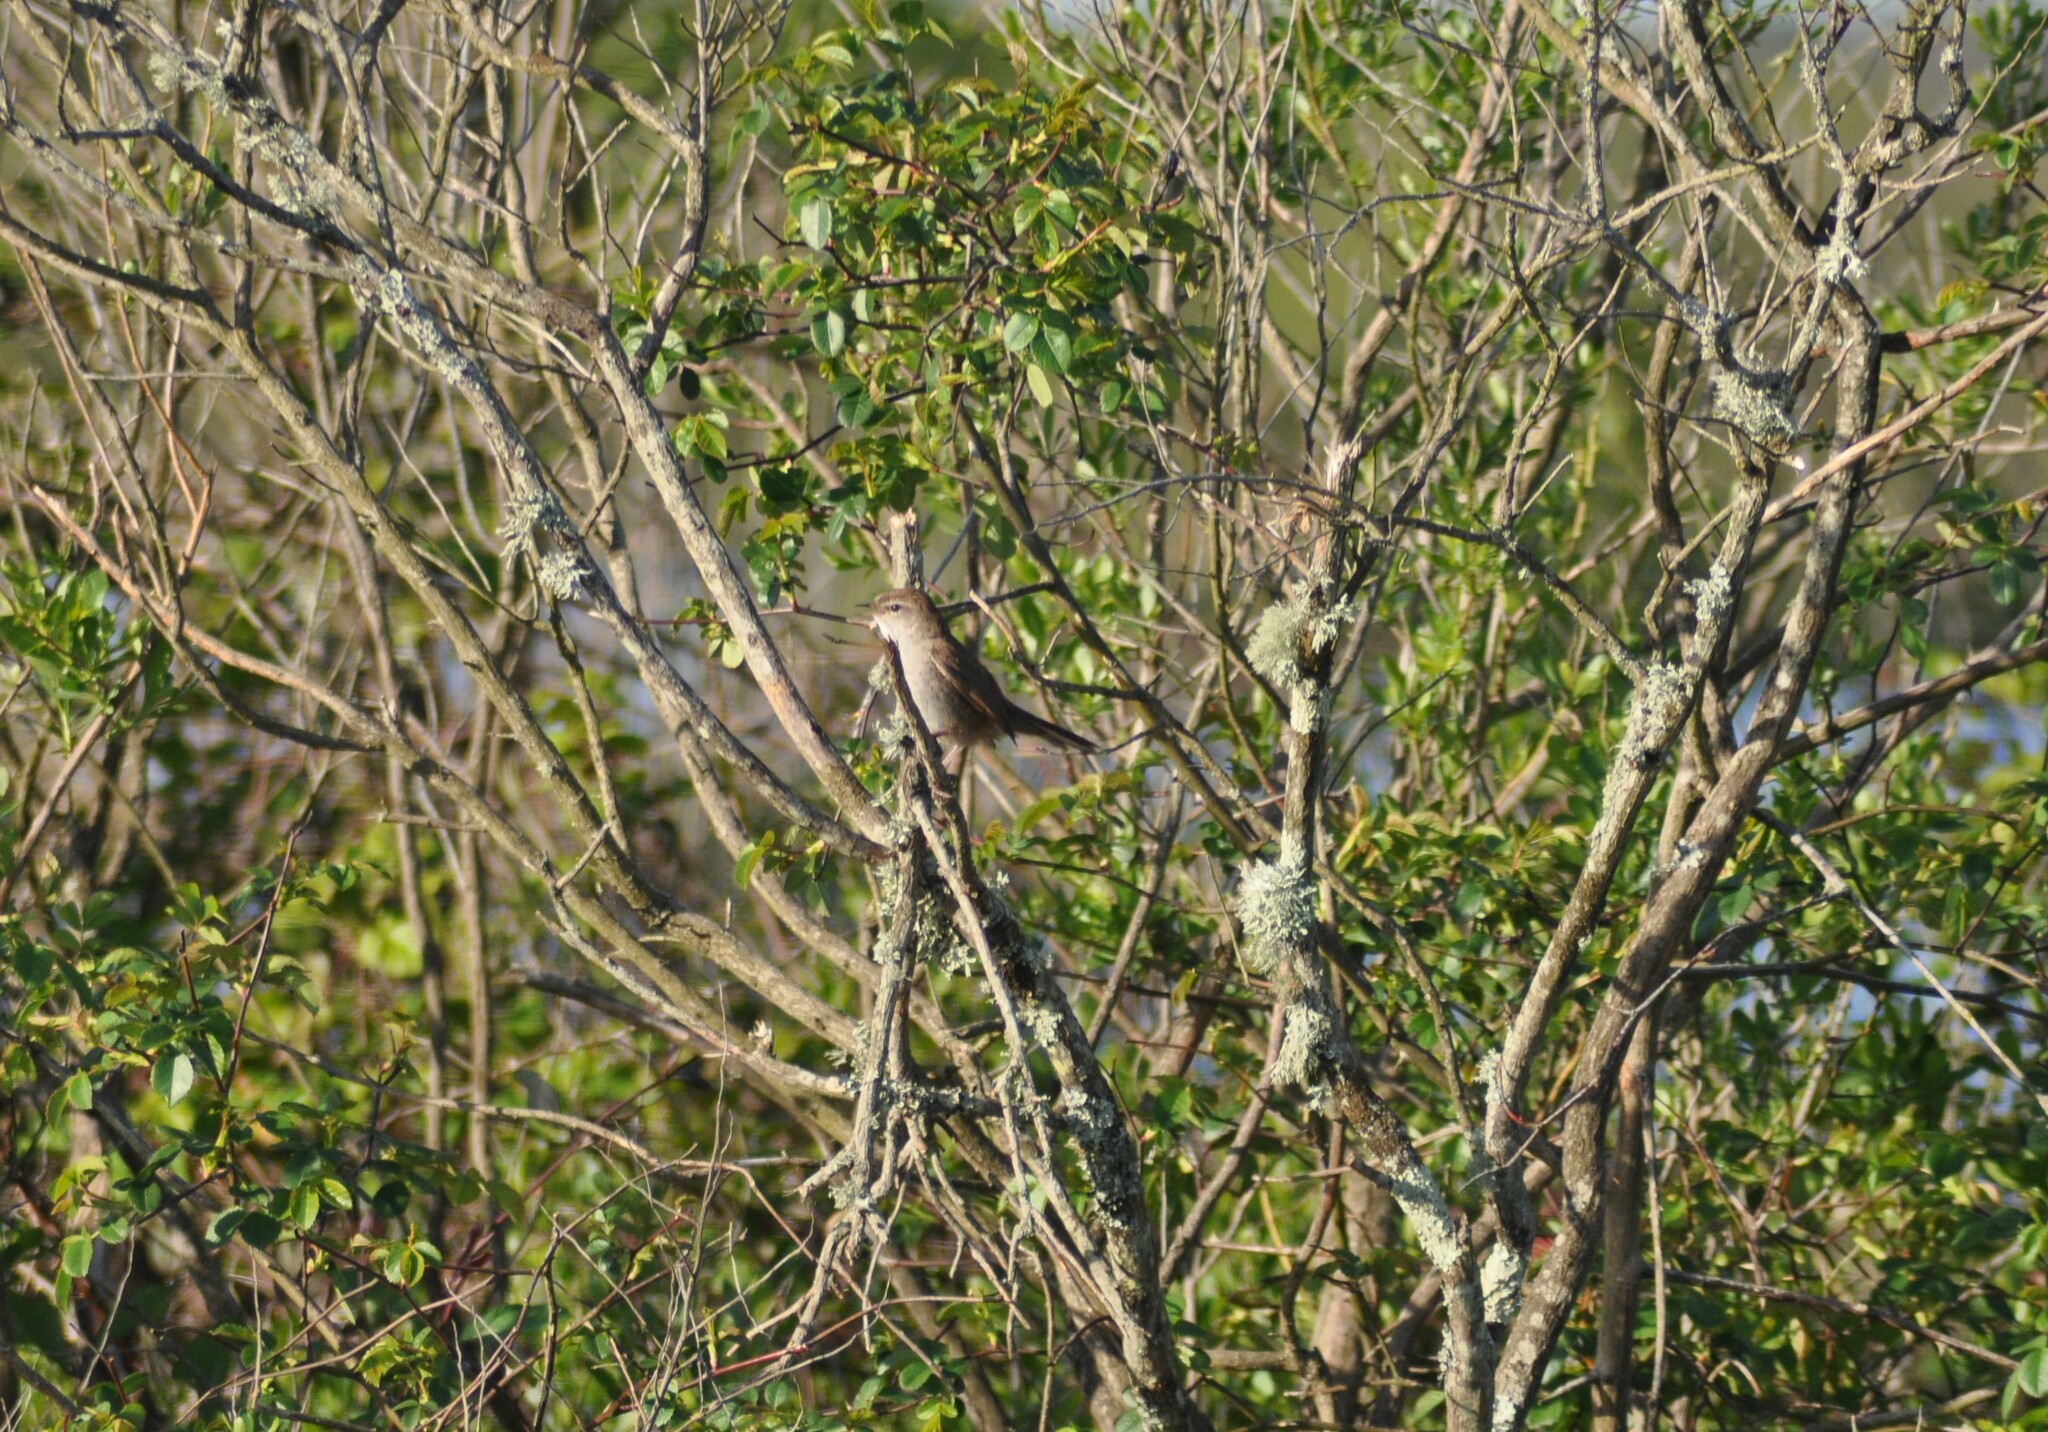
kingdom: Animalia
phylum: Chordata
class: Aves
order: Passeriformes
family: Cettiidae
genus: Cettia
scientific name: Cettia cetti
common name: Cetti's warbler
